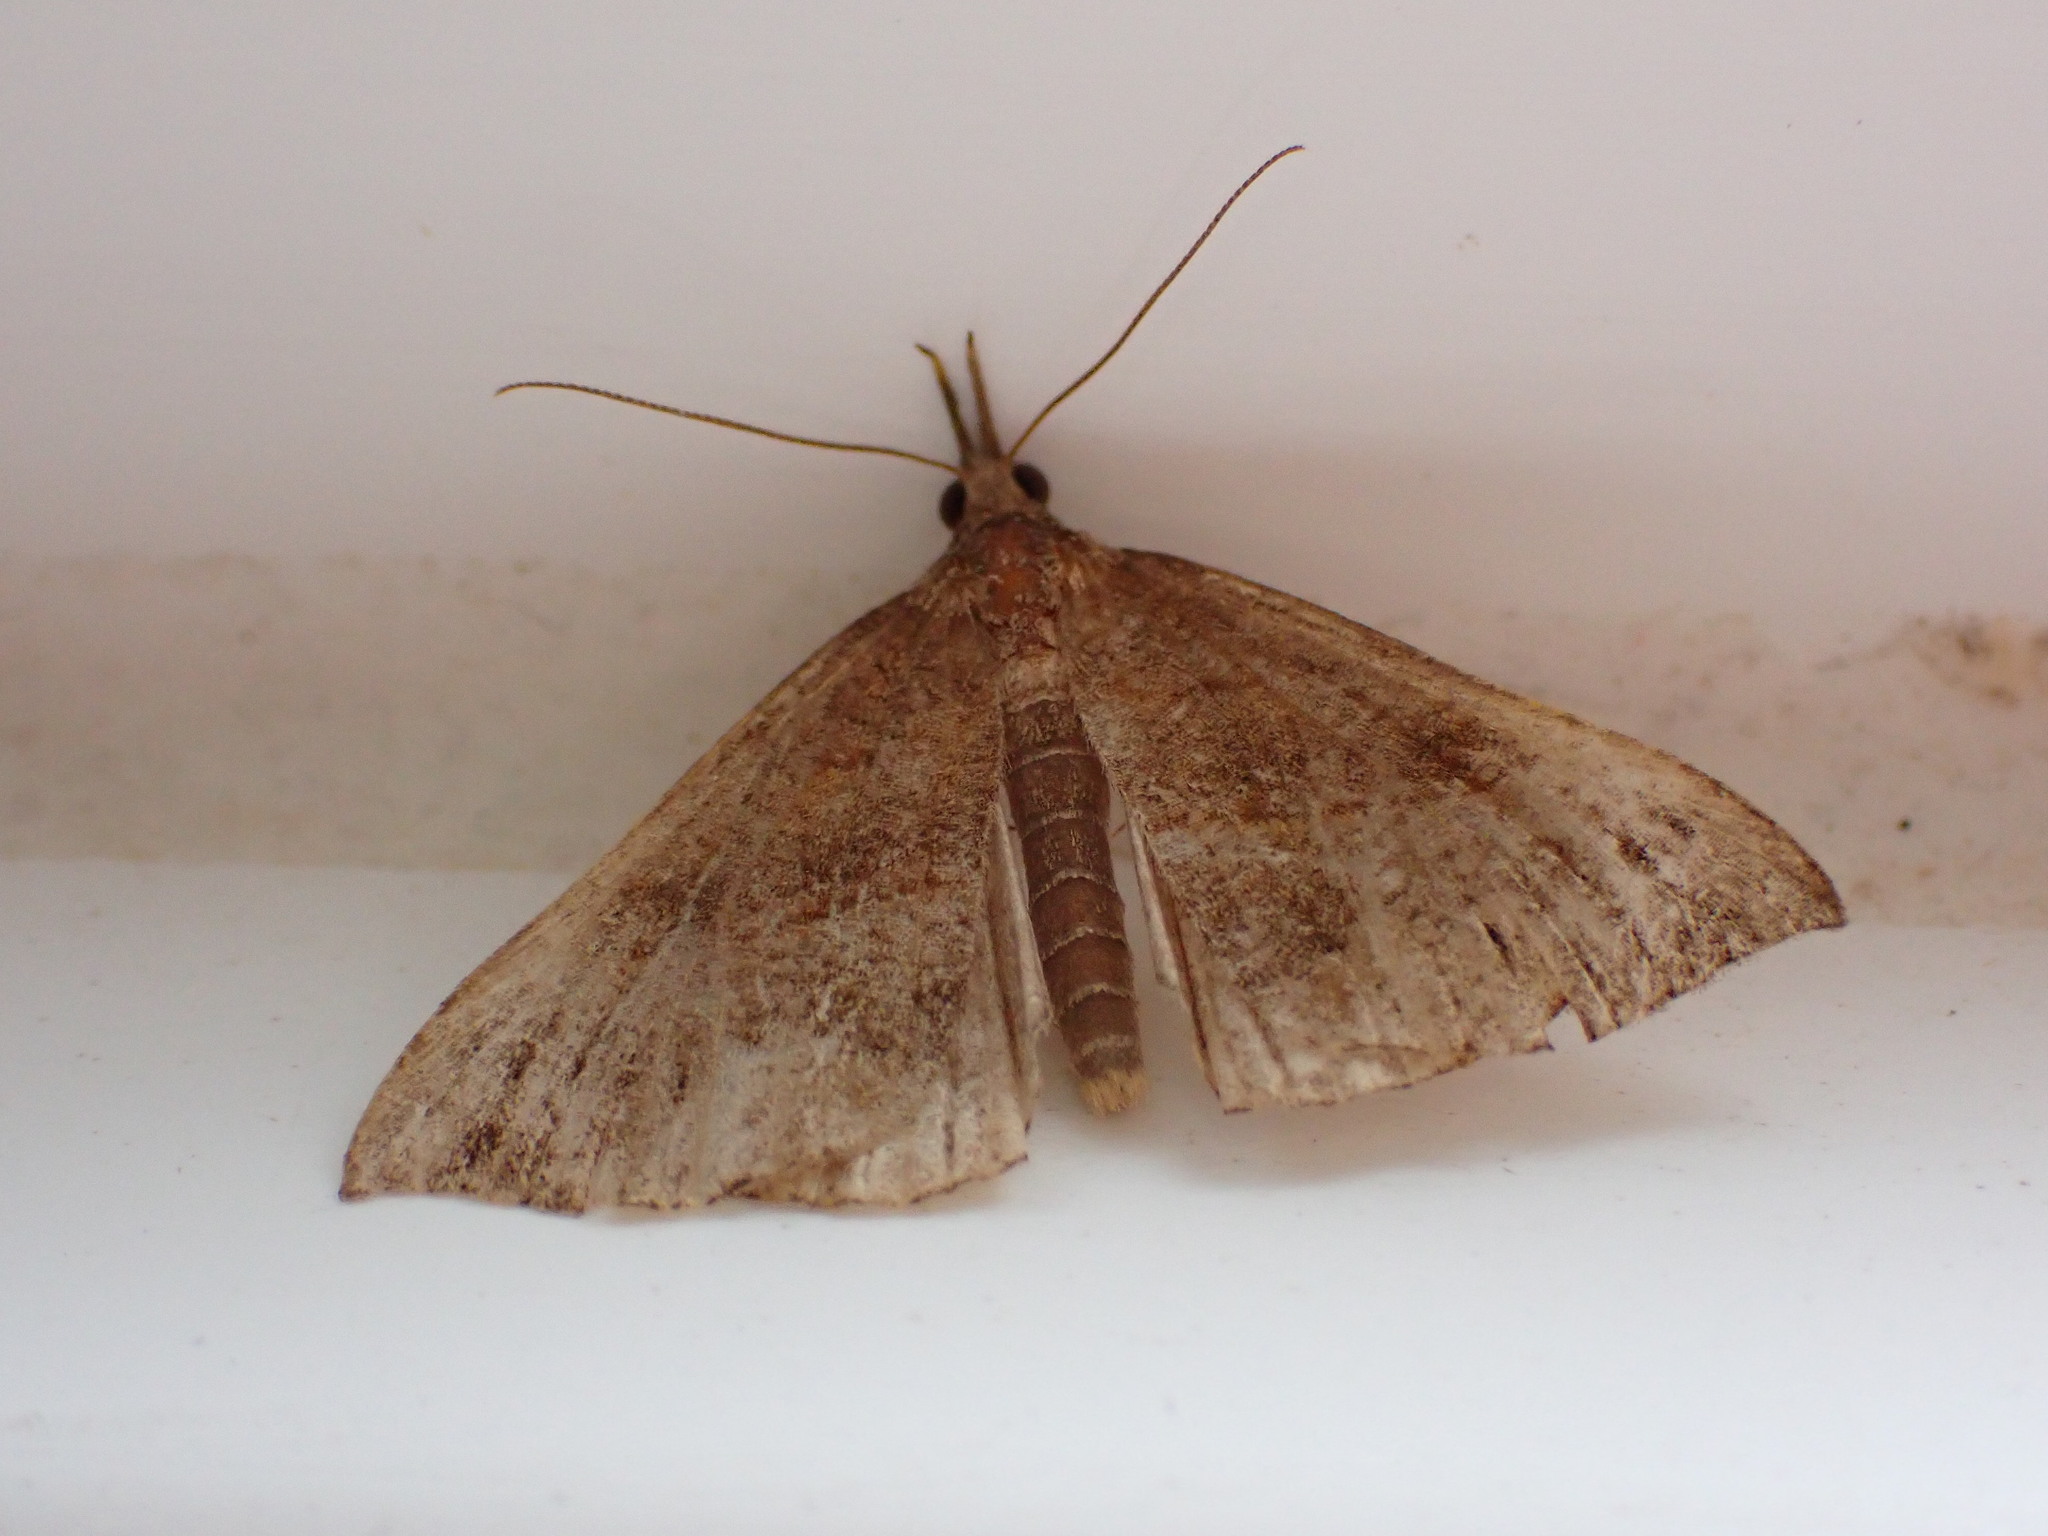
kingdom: Animalia
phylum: Arthropoda
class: Insecta
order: Lepidoptera
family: Erebidae
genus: Hypena
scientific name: Hypena proboscidalis
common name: Snout
